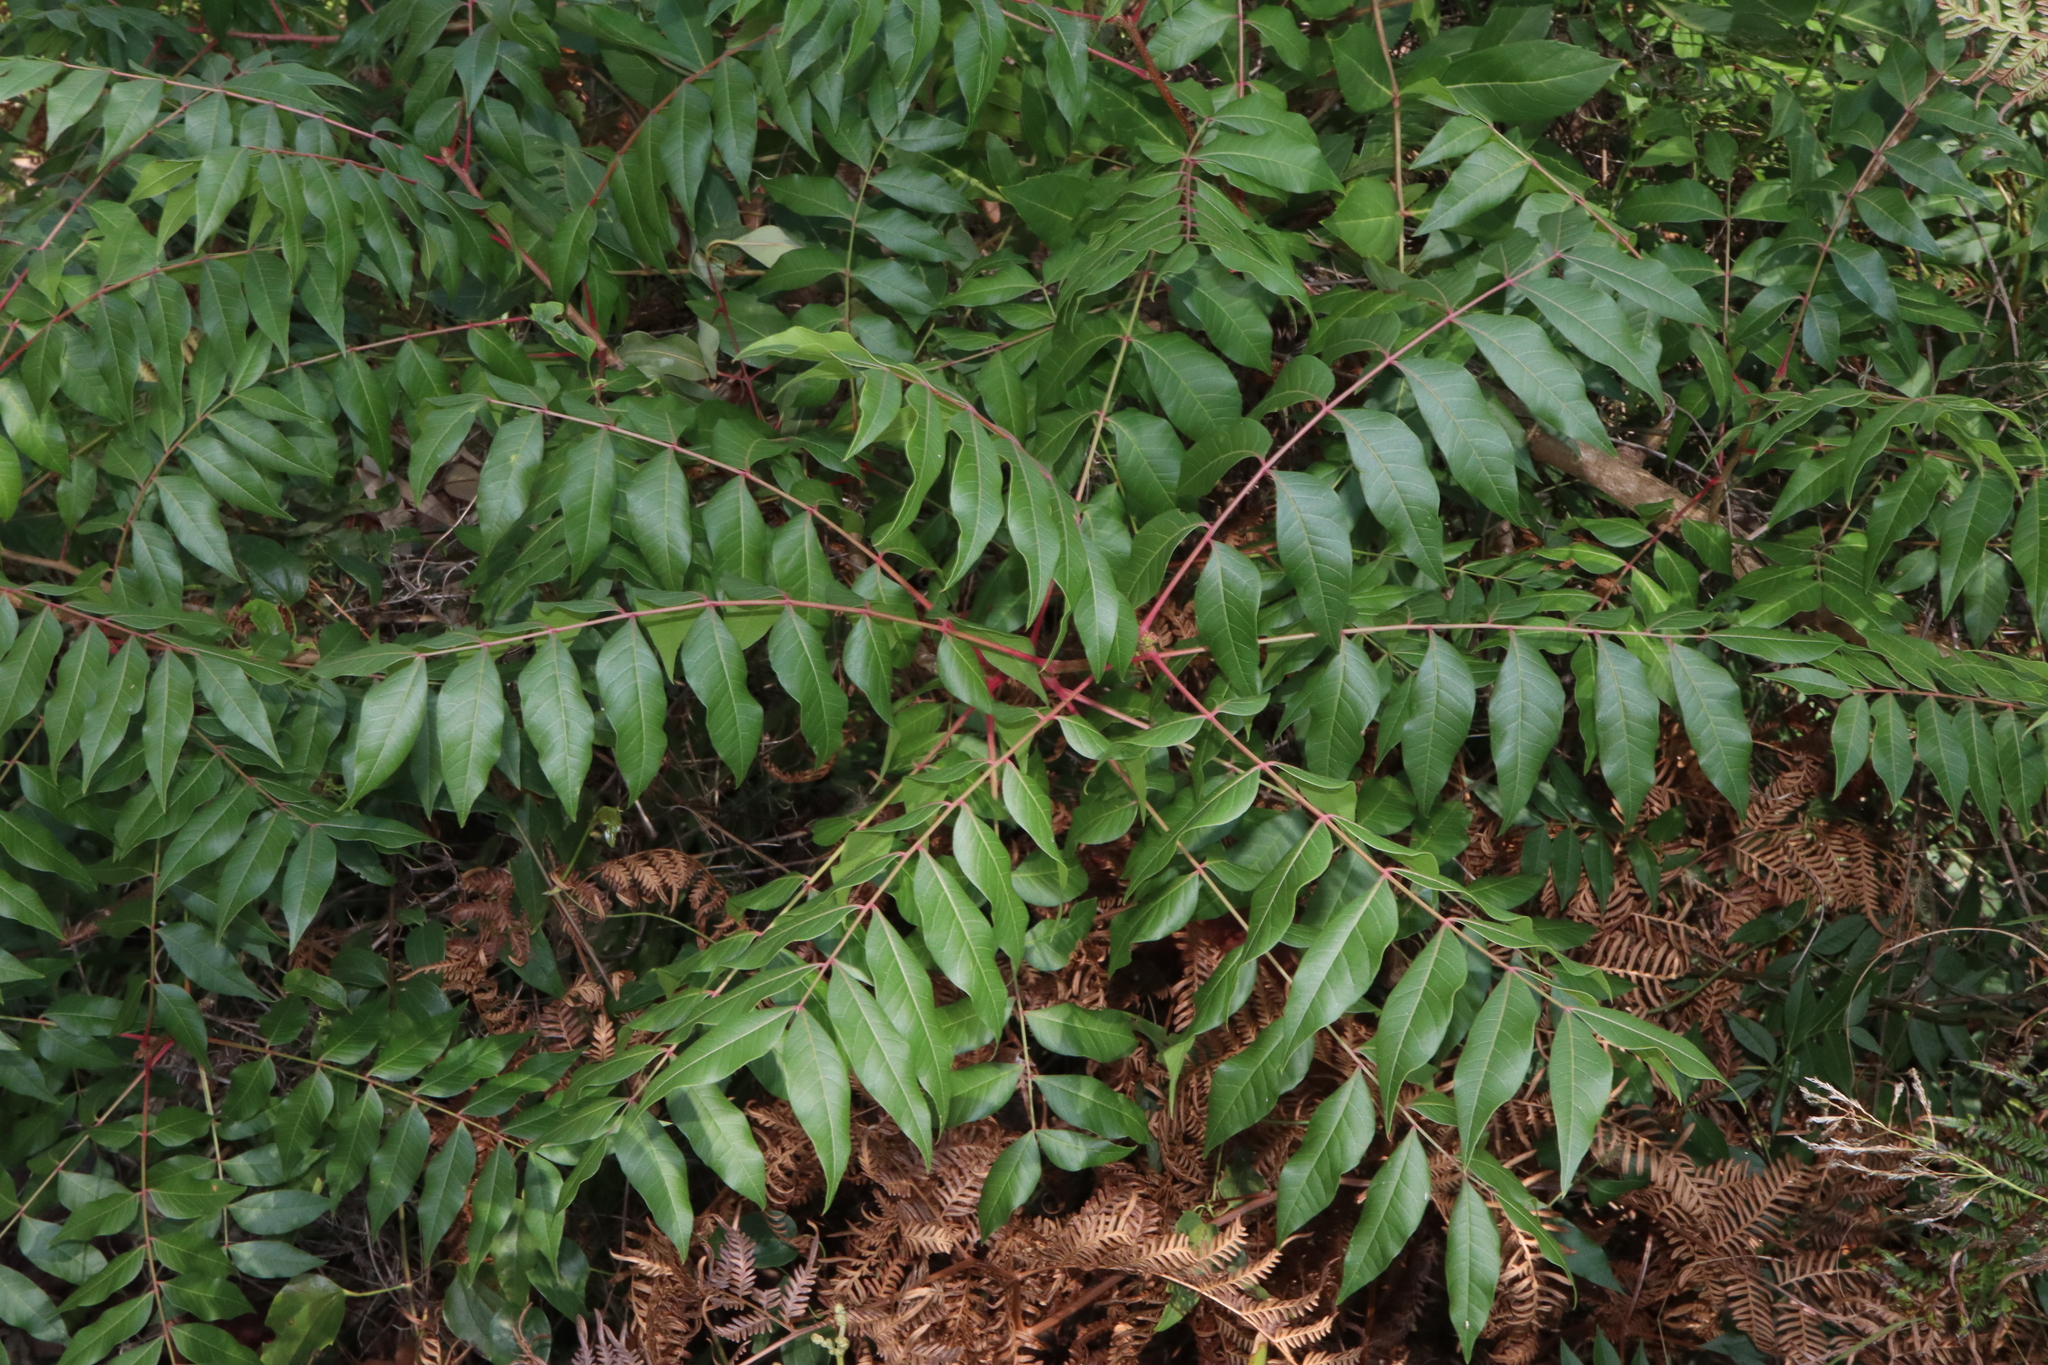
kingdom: Plantae
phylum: Tracheophyta
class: Magnoliopsida
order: Sapindales
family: Anacardiaceae
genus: Pistacia
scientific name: Pistacia chinensis
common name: Chinese pistache
